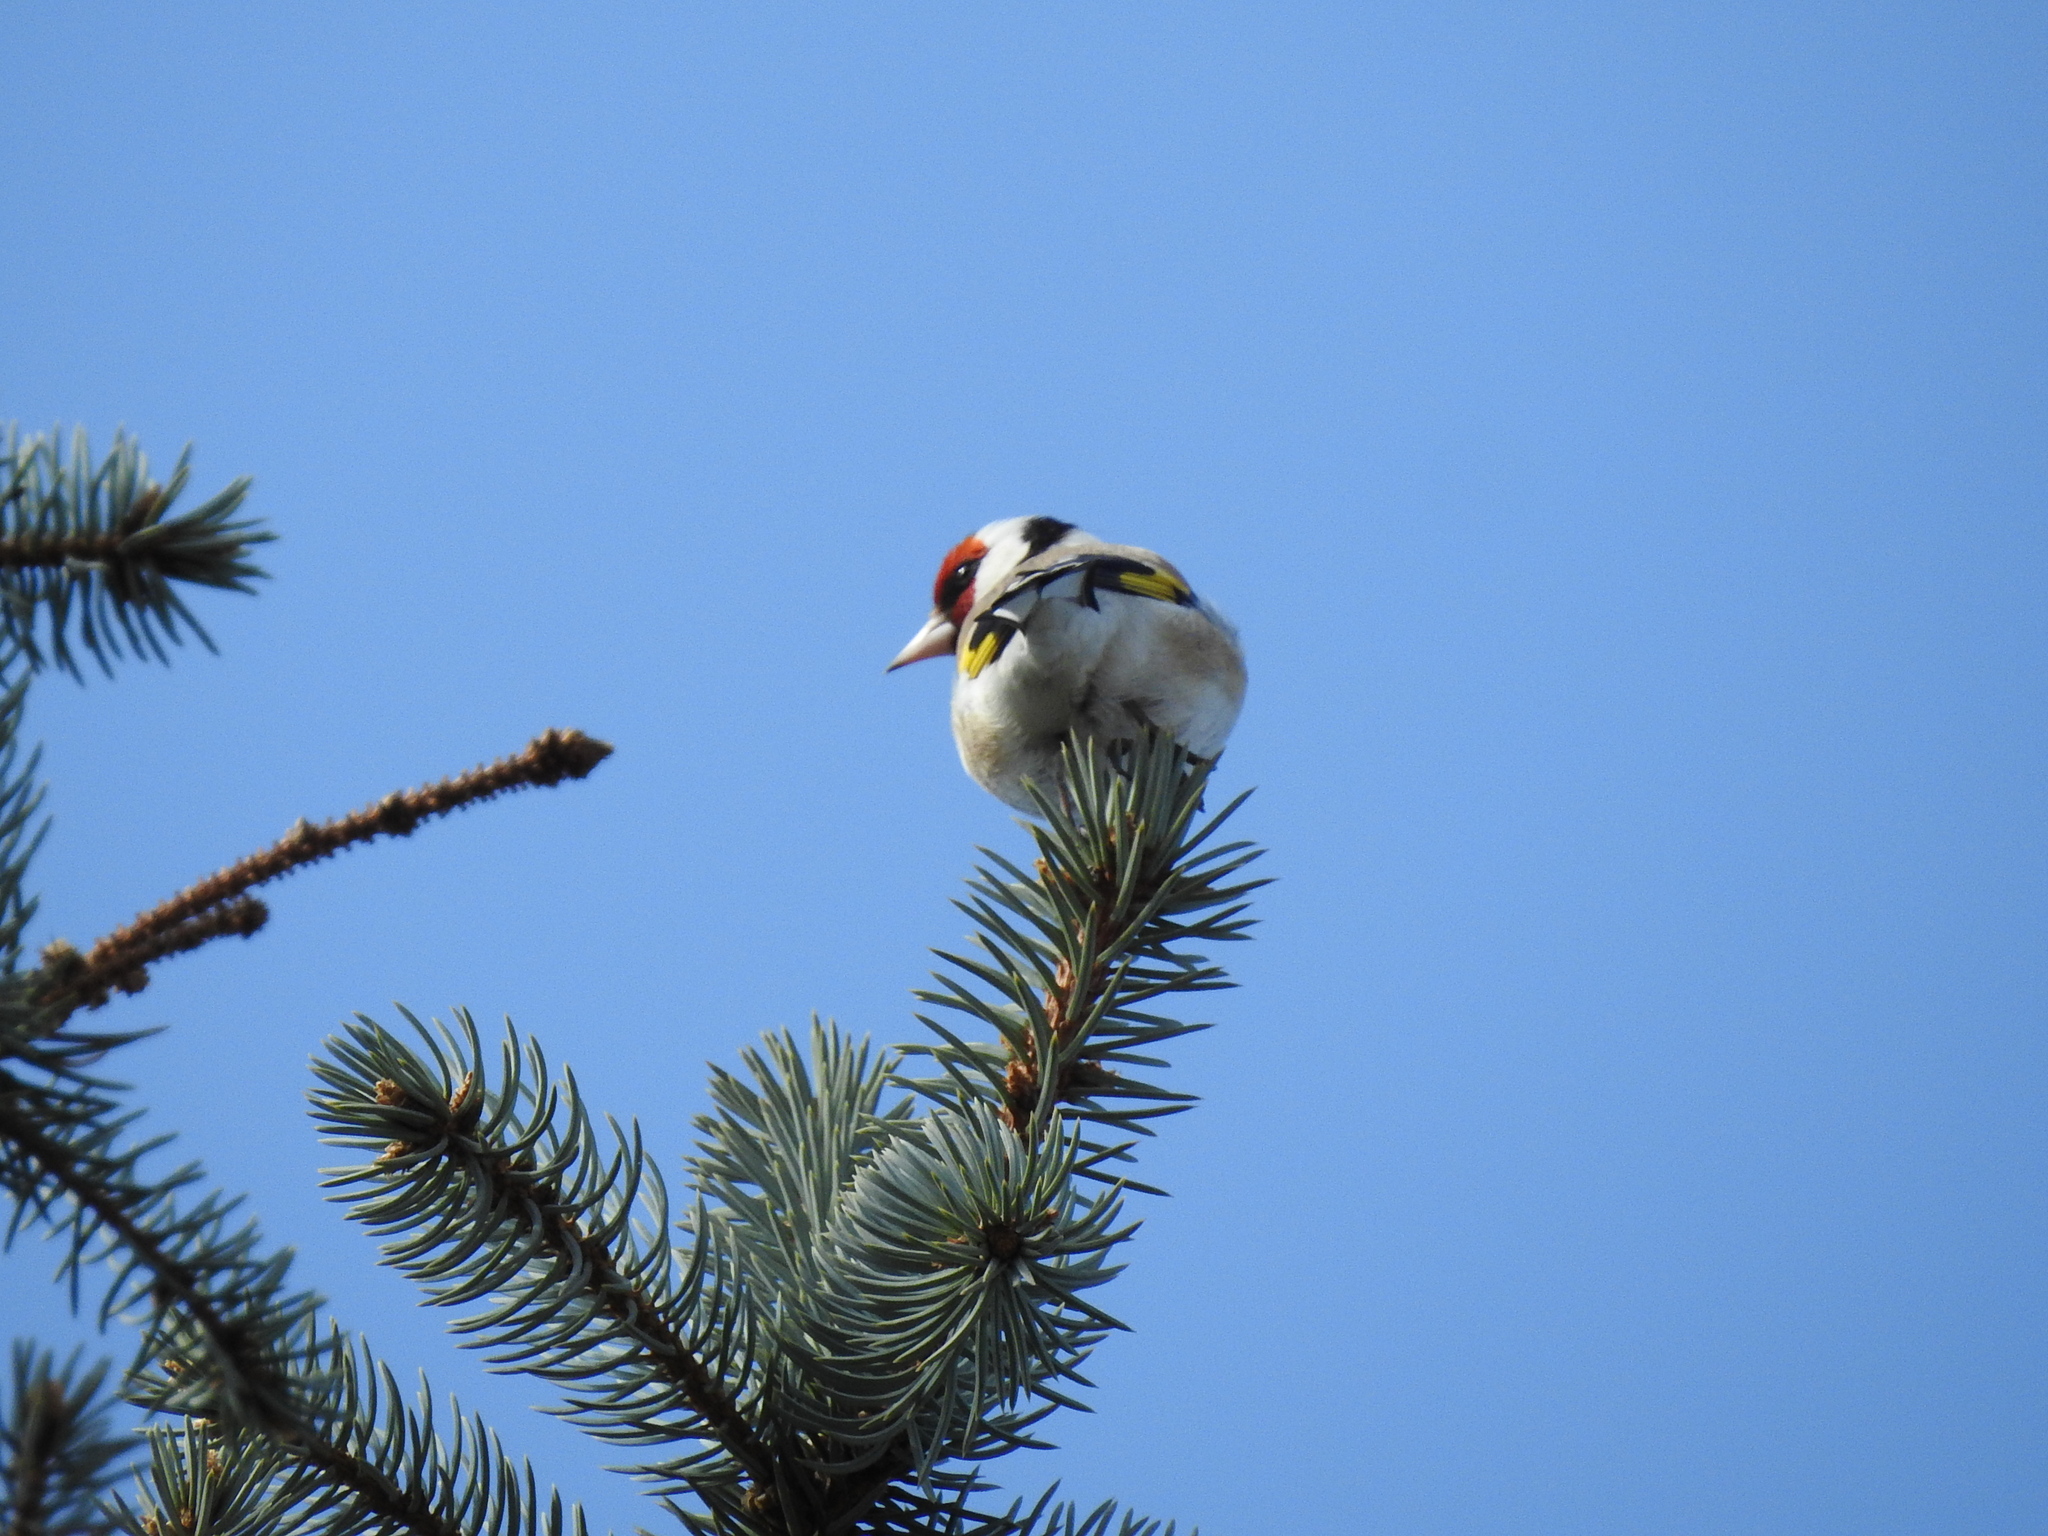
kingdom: Animalia
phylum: Chordata
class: Aves
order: Passeriformes
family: Fringillidae
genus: Carduelis
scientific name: Carduelis carduelis
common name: European goldfinch
